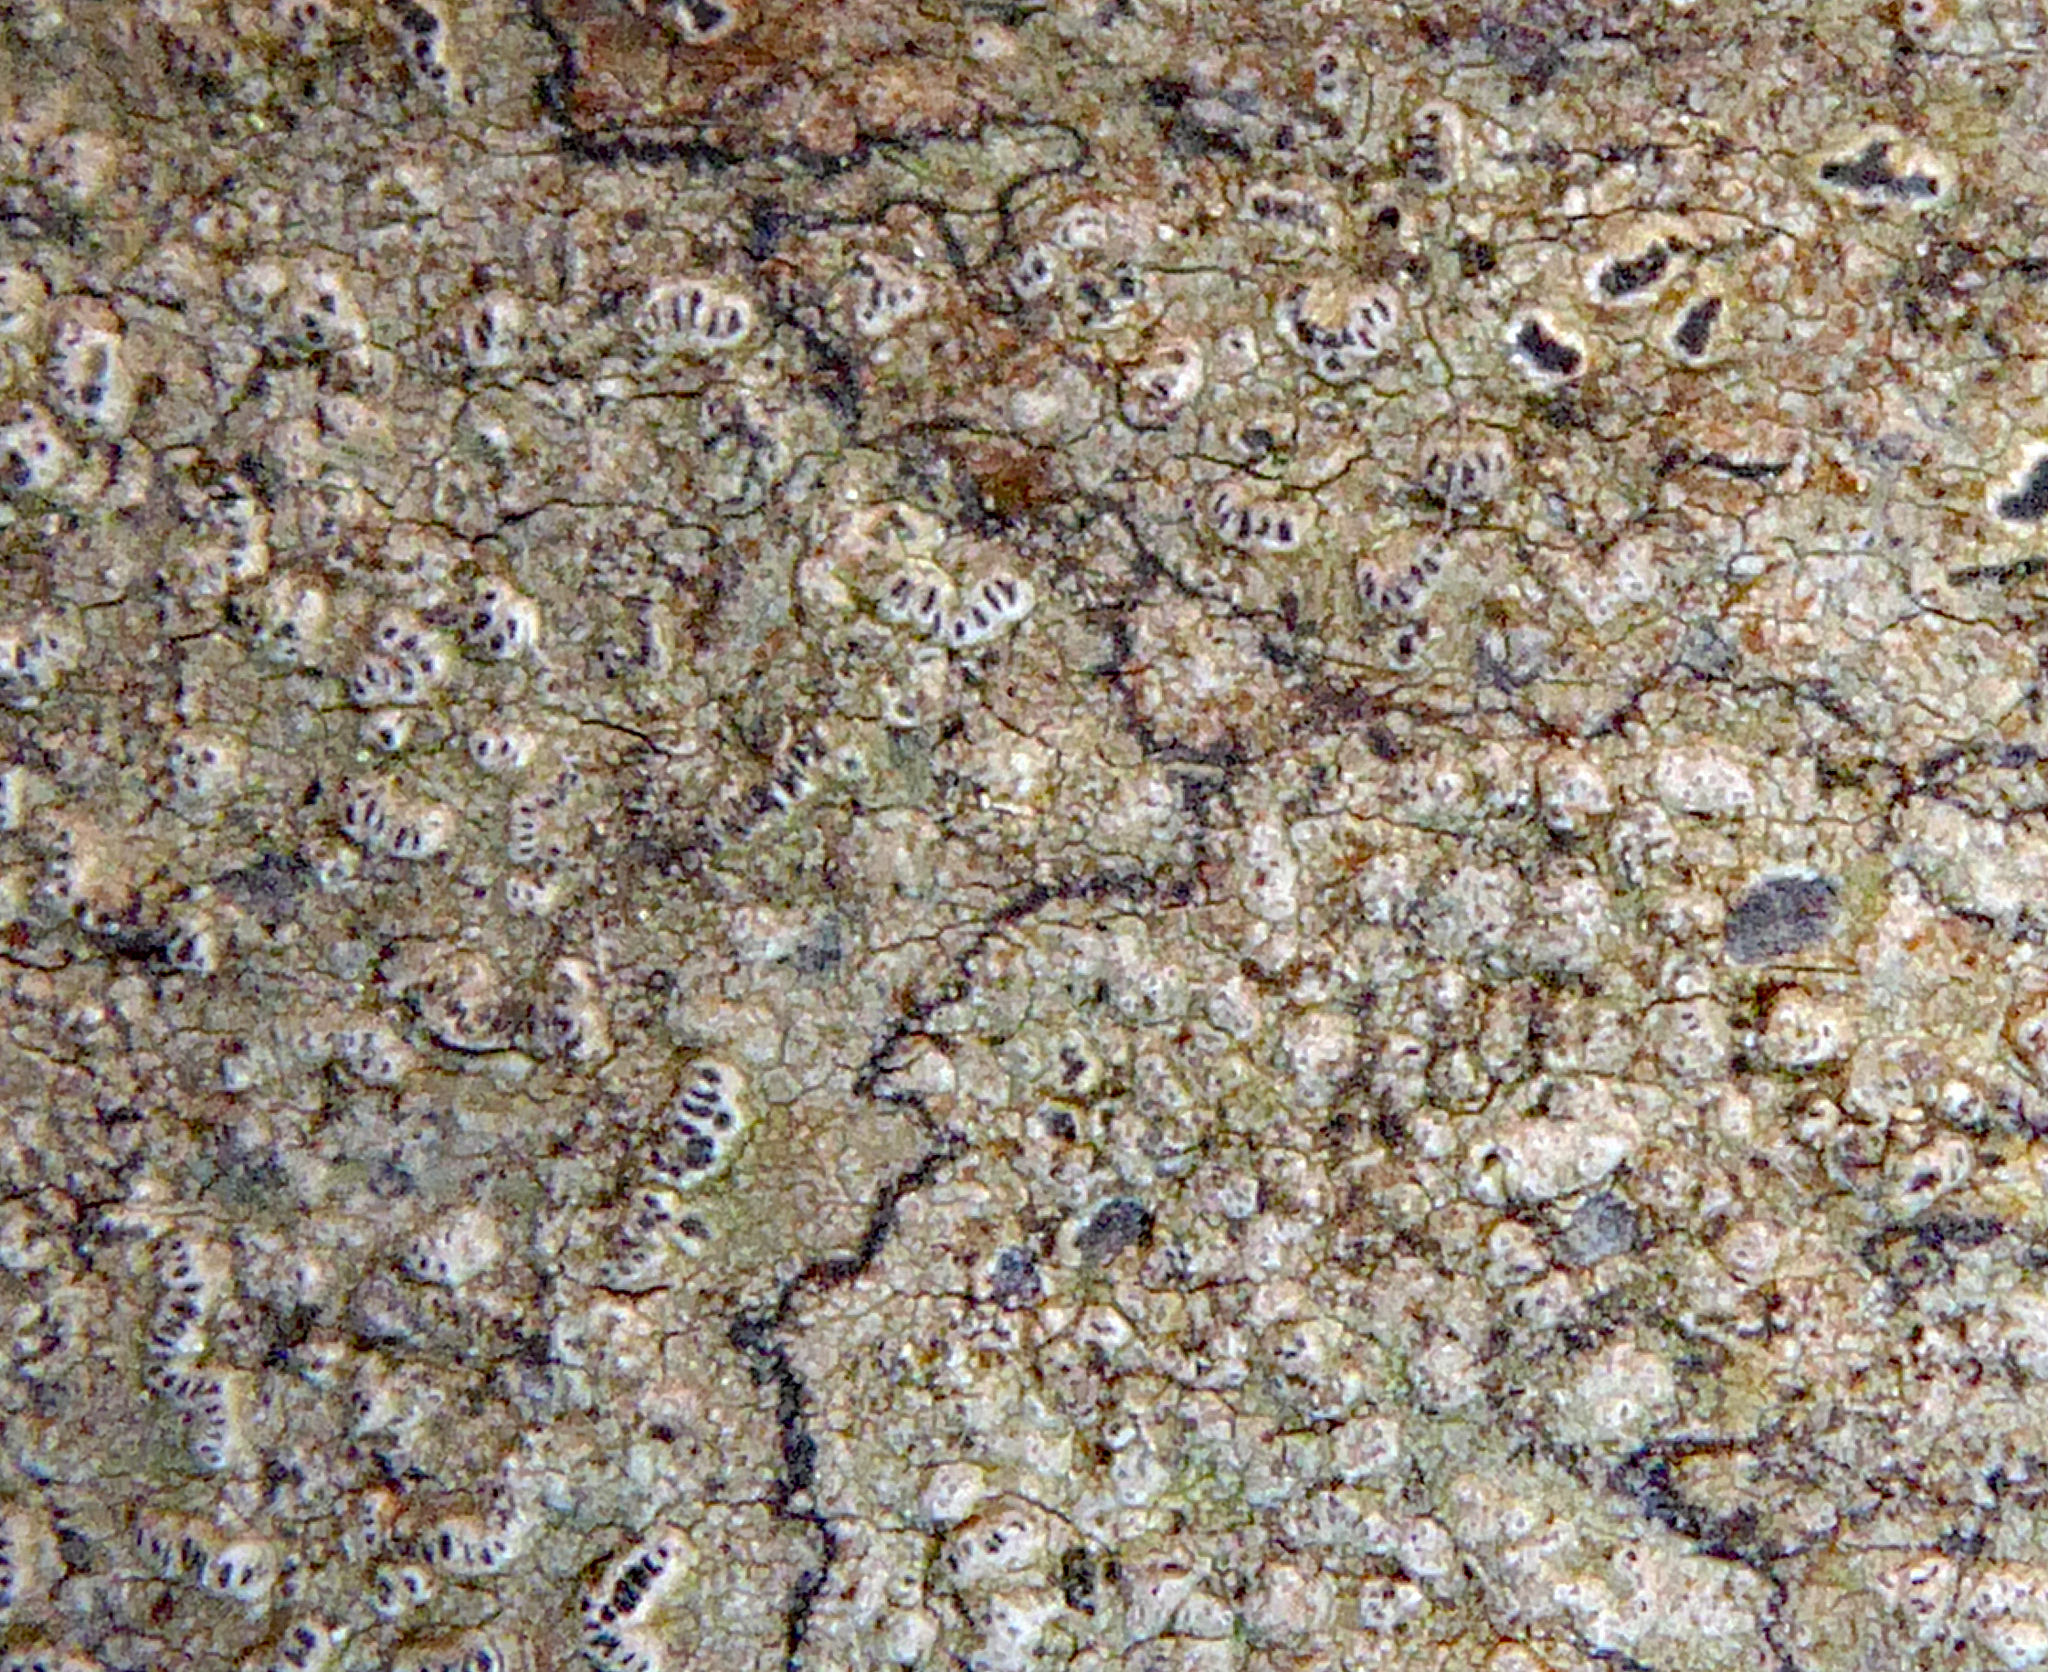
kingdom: Fungi
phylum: Ascomycota
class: Arthoniomycetes
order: Arthoniales
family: Roccellaceae
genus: Chiodecton
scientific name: Chiodecton colensoi
